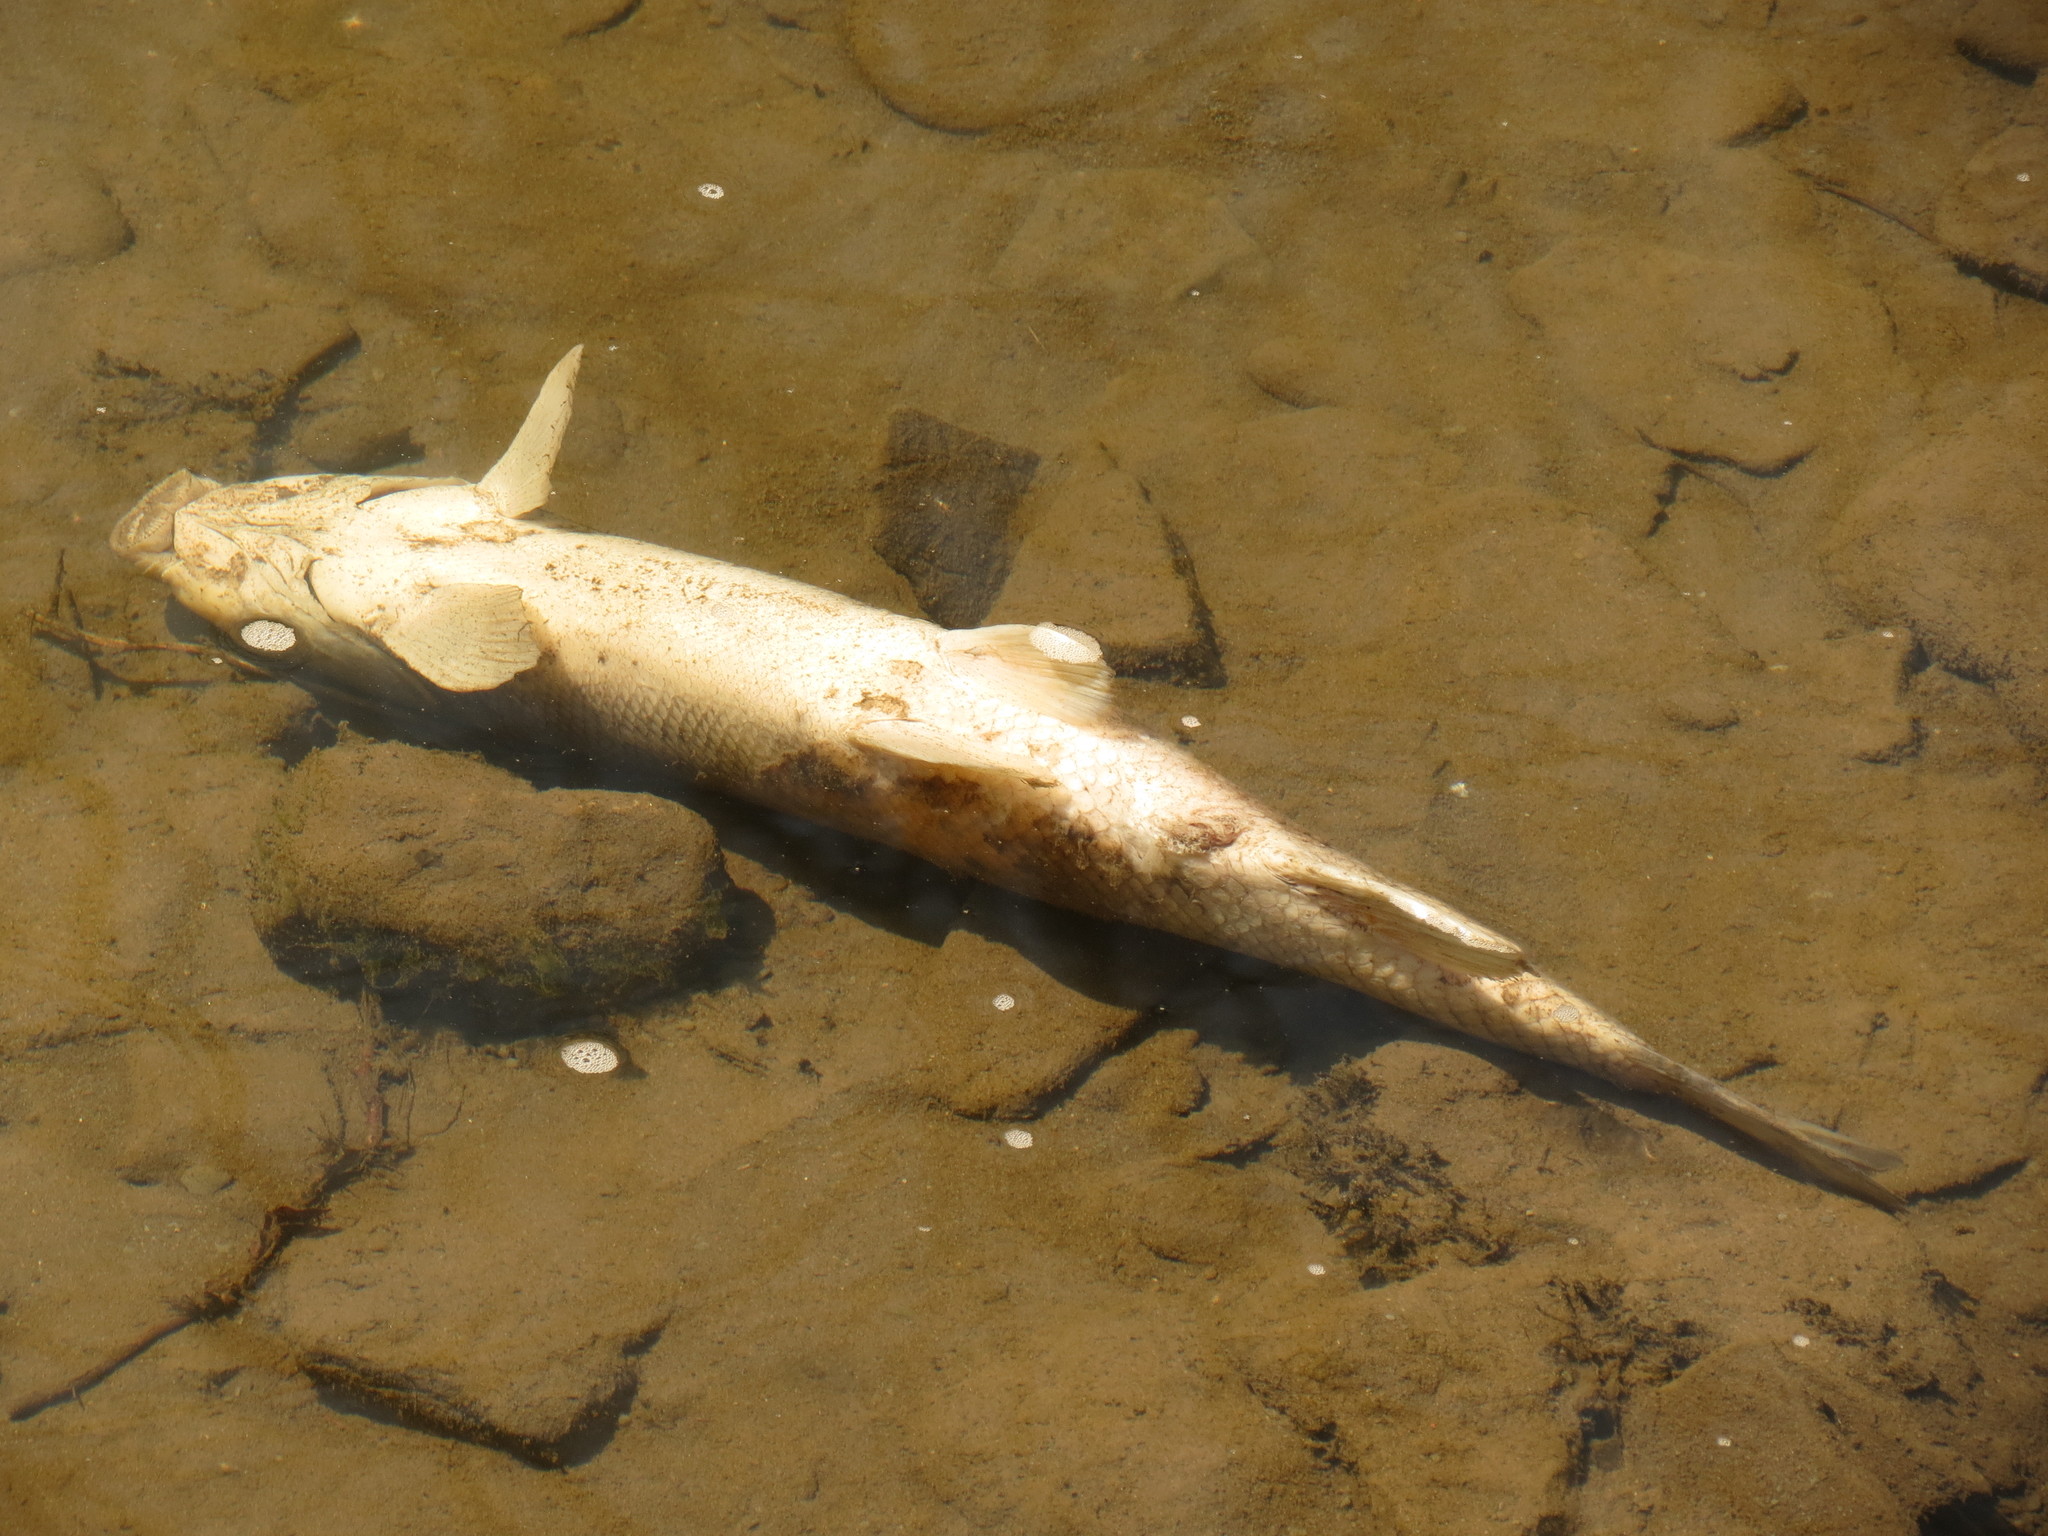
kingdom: Animalia
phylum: Chordata
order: Cypriniformes
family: Catostomidae
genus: Catostomus
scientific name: Catostomus commersonii
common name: White sucker
